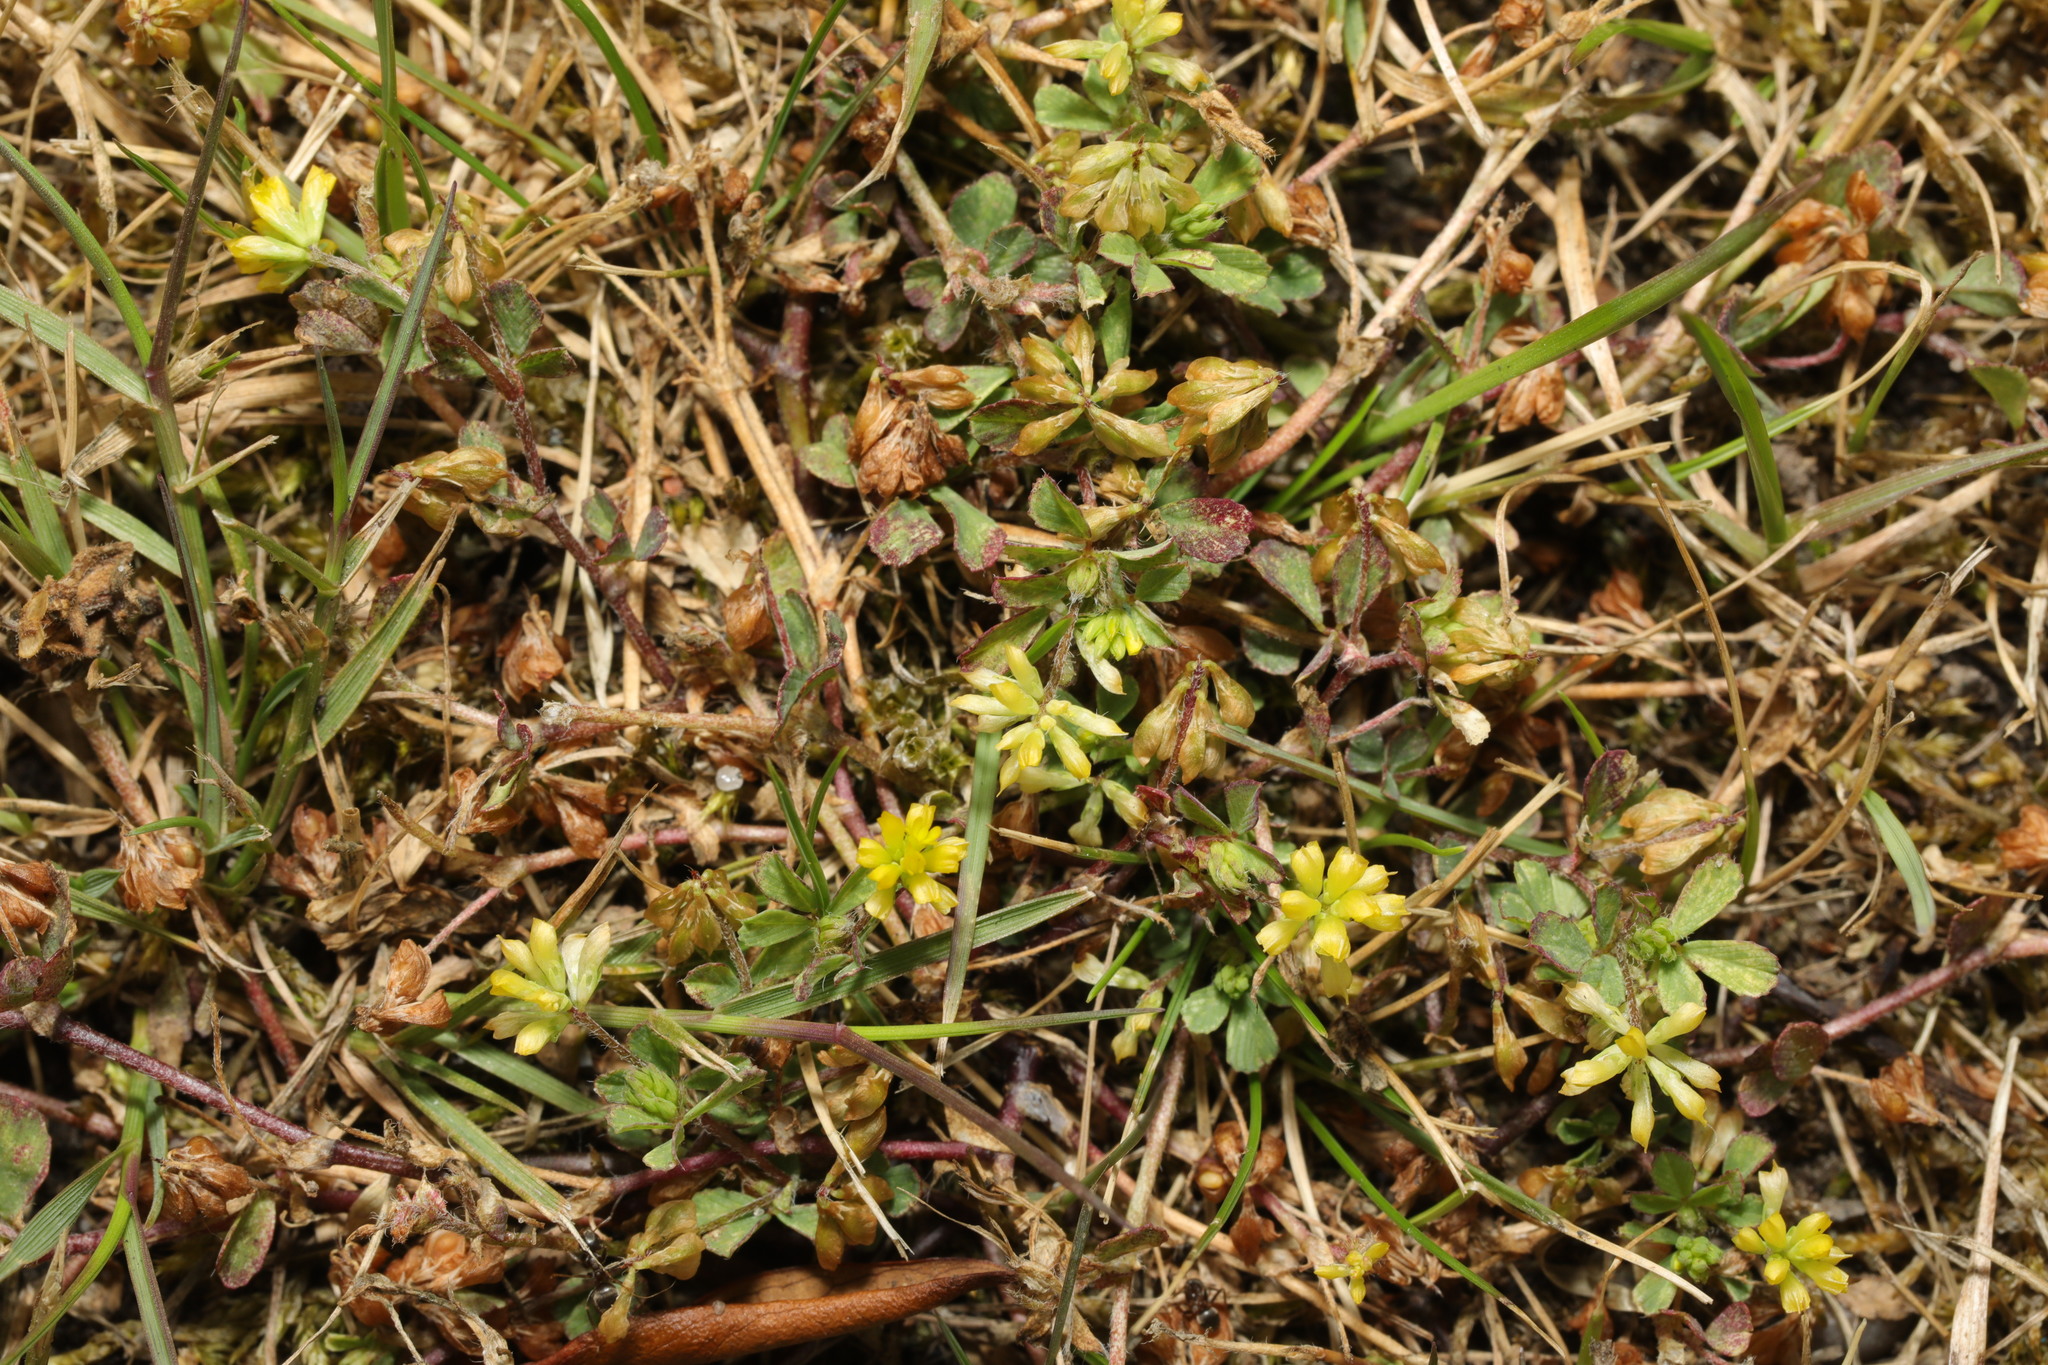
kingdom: Plantae
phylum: Tracheophyta
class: Magnoliopsida
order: Fabales
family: Fabaceae
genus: Trifolium
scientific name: Trifolium dubium
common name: Suckling clover
